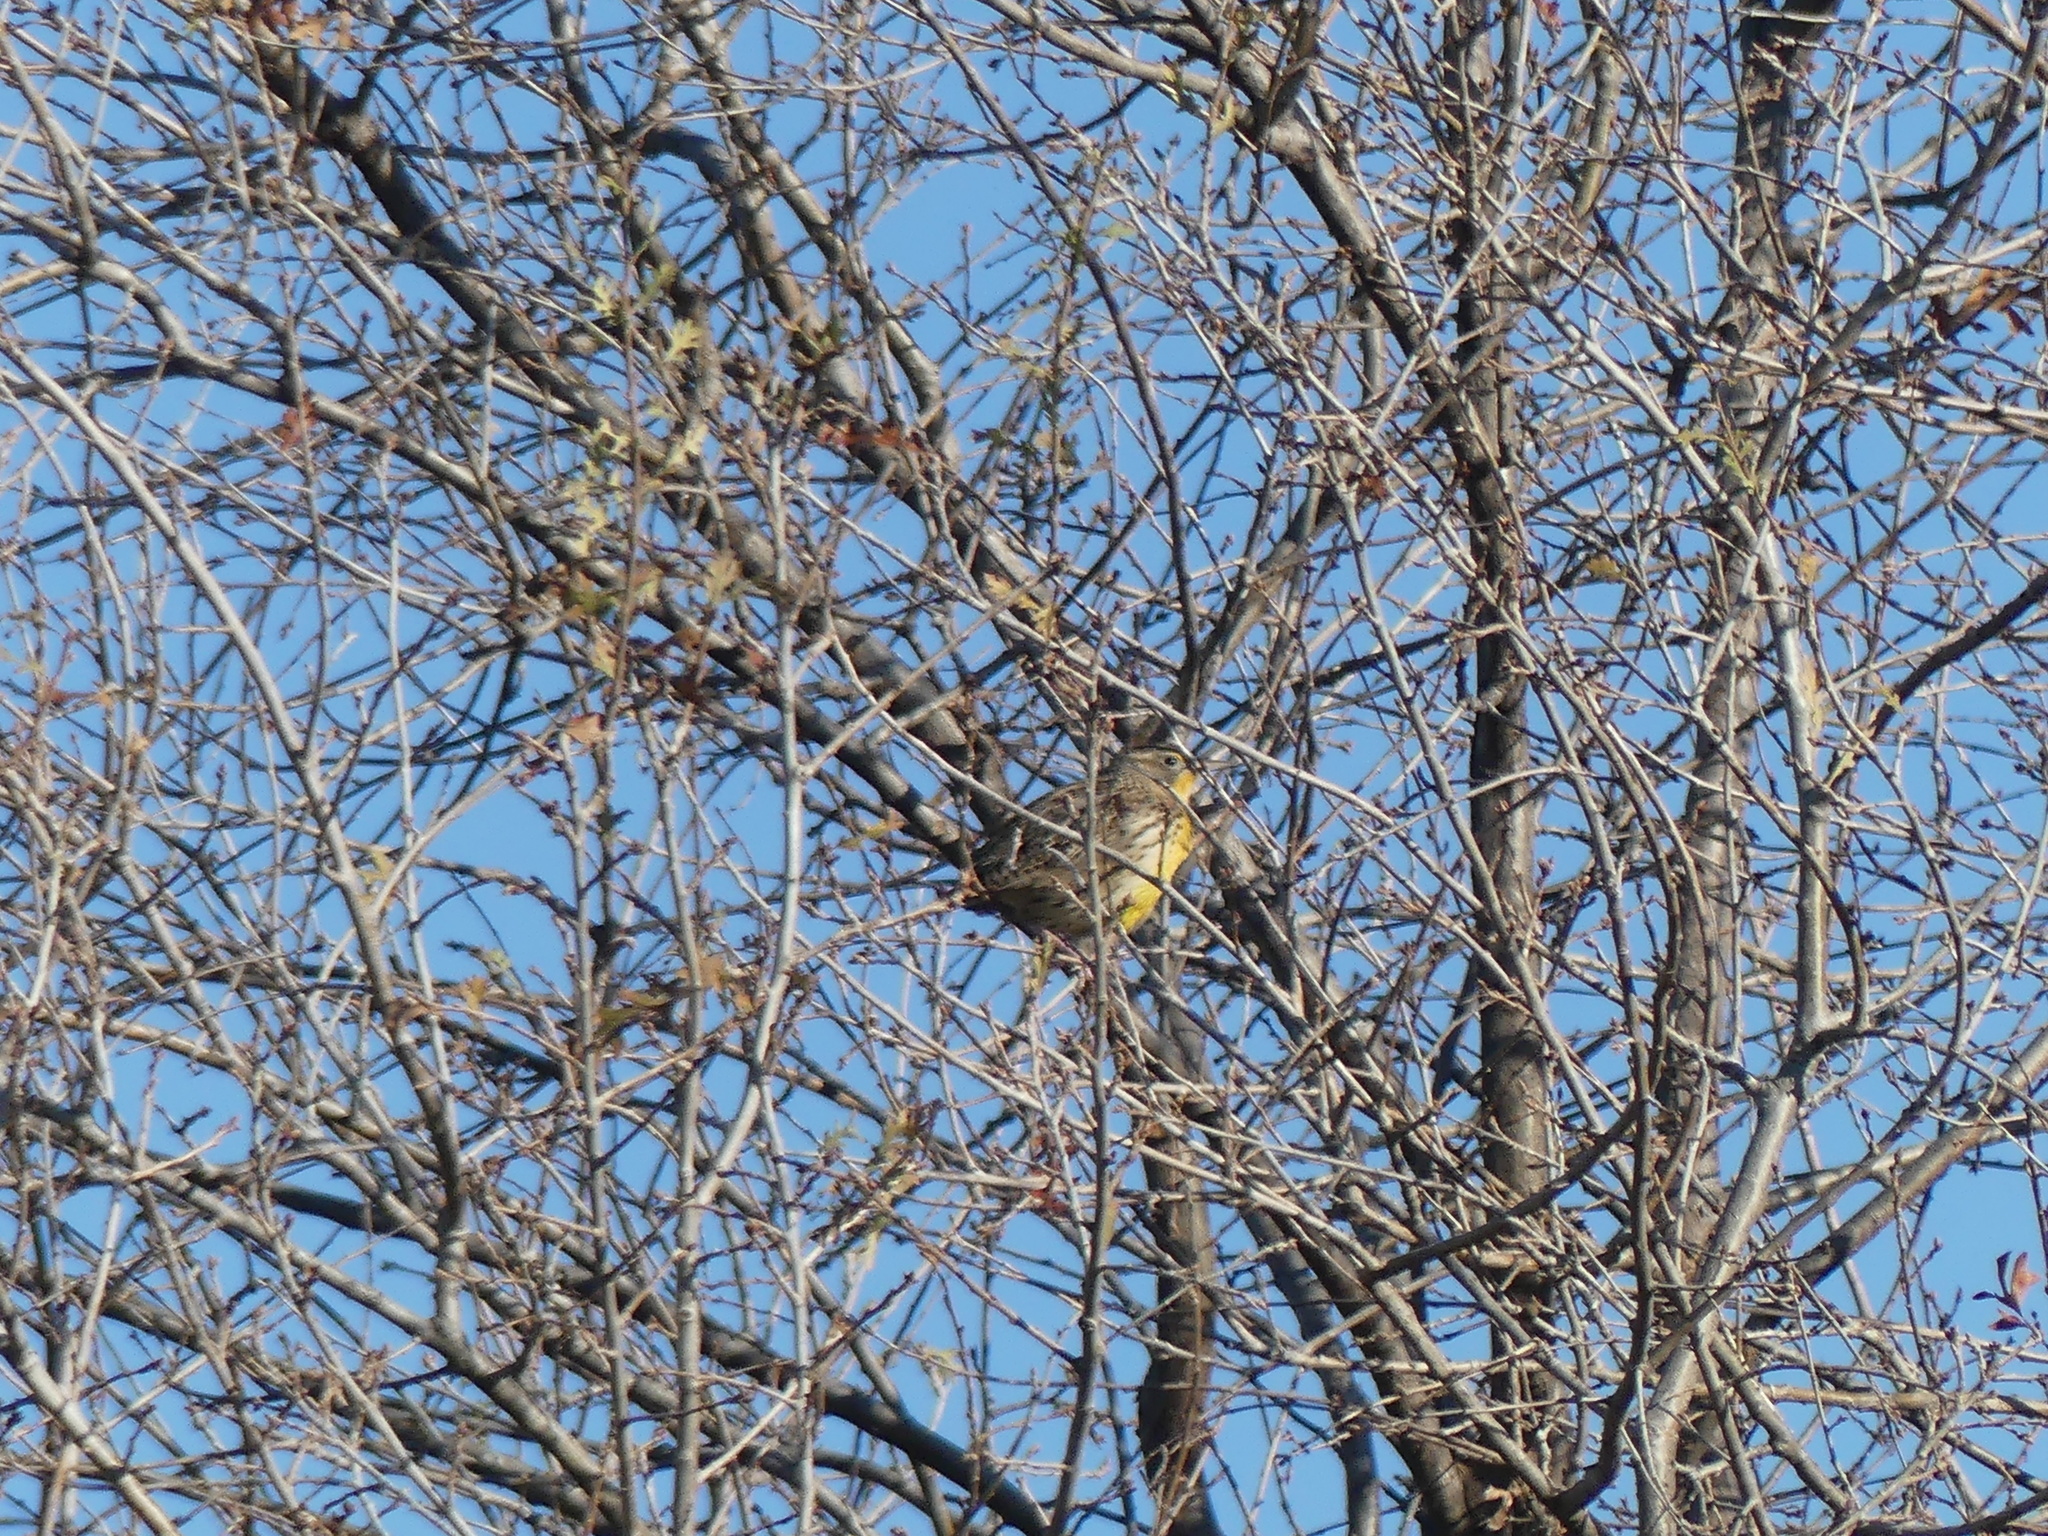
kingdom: Animalia
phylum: Chordata
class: Aves
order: Passeriformes
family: Icteridae
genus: Sturnella
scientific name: Sturnella neglecta
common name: Western meadowlark
